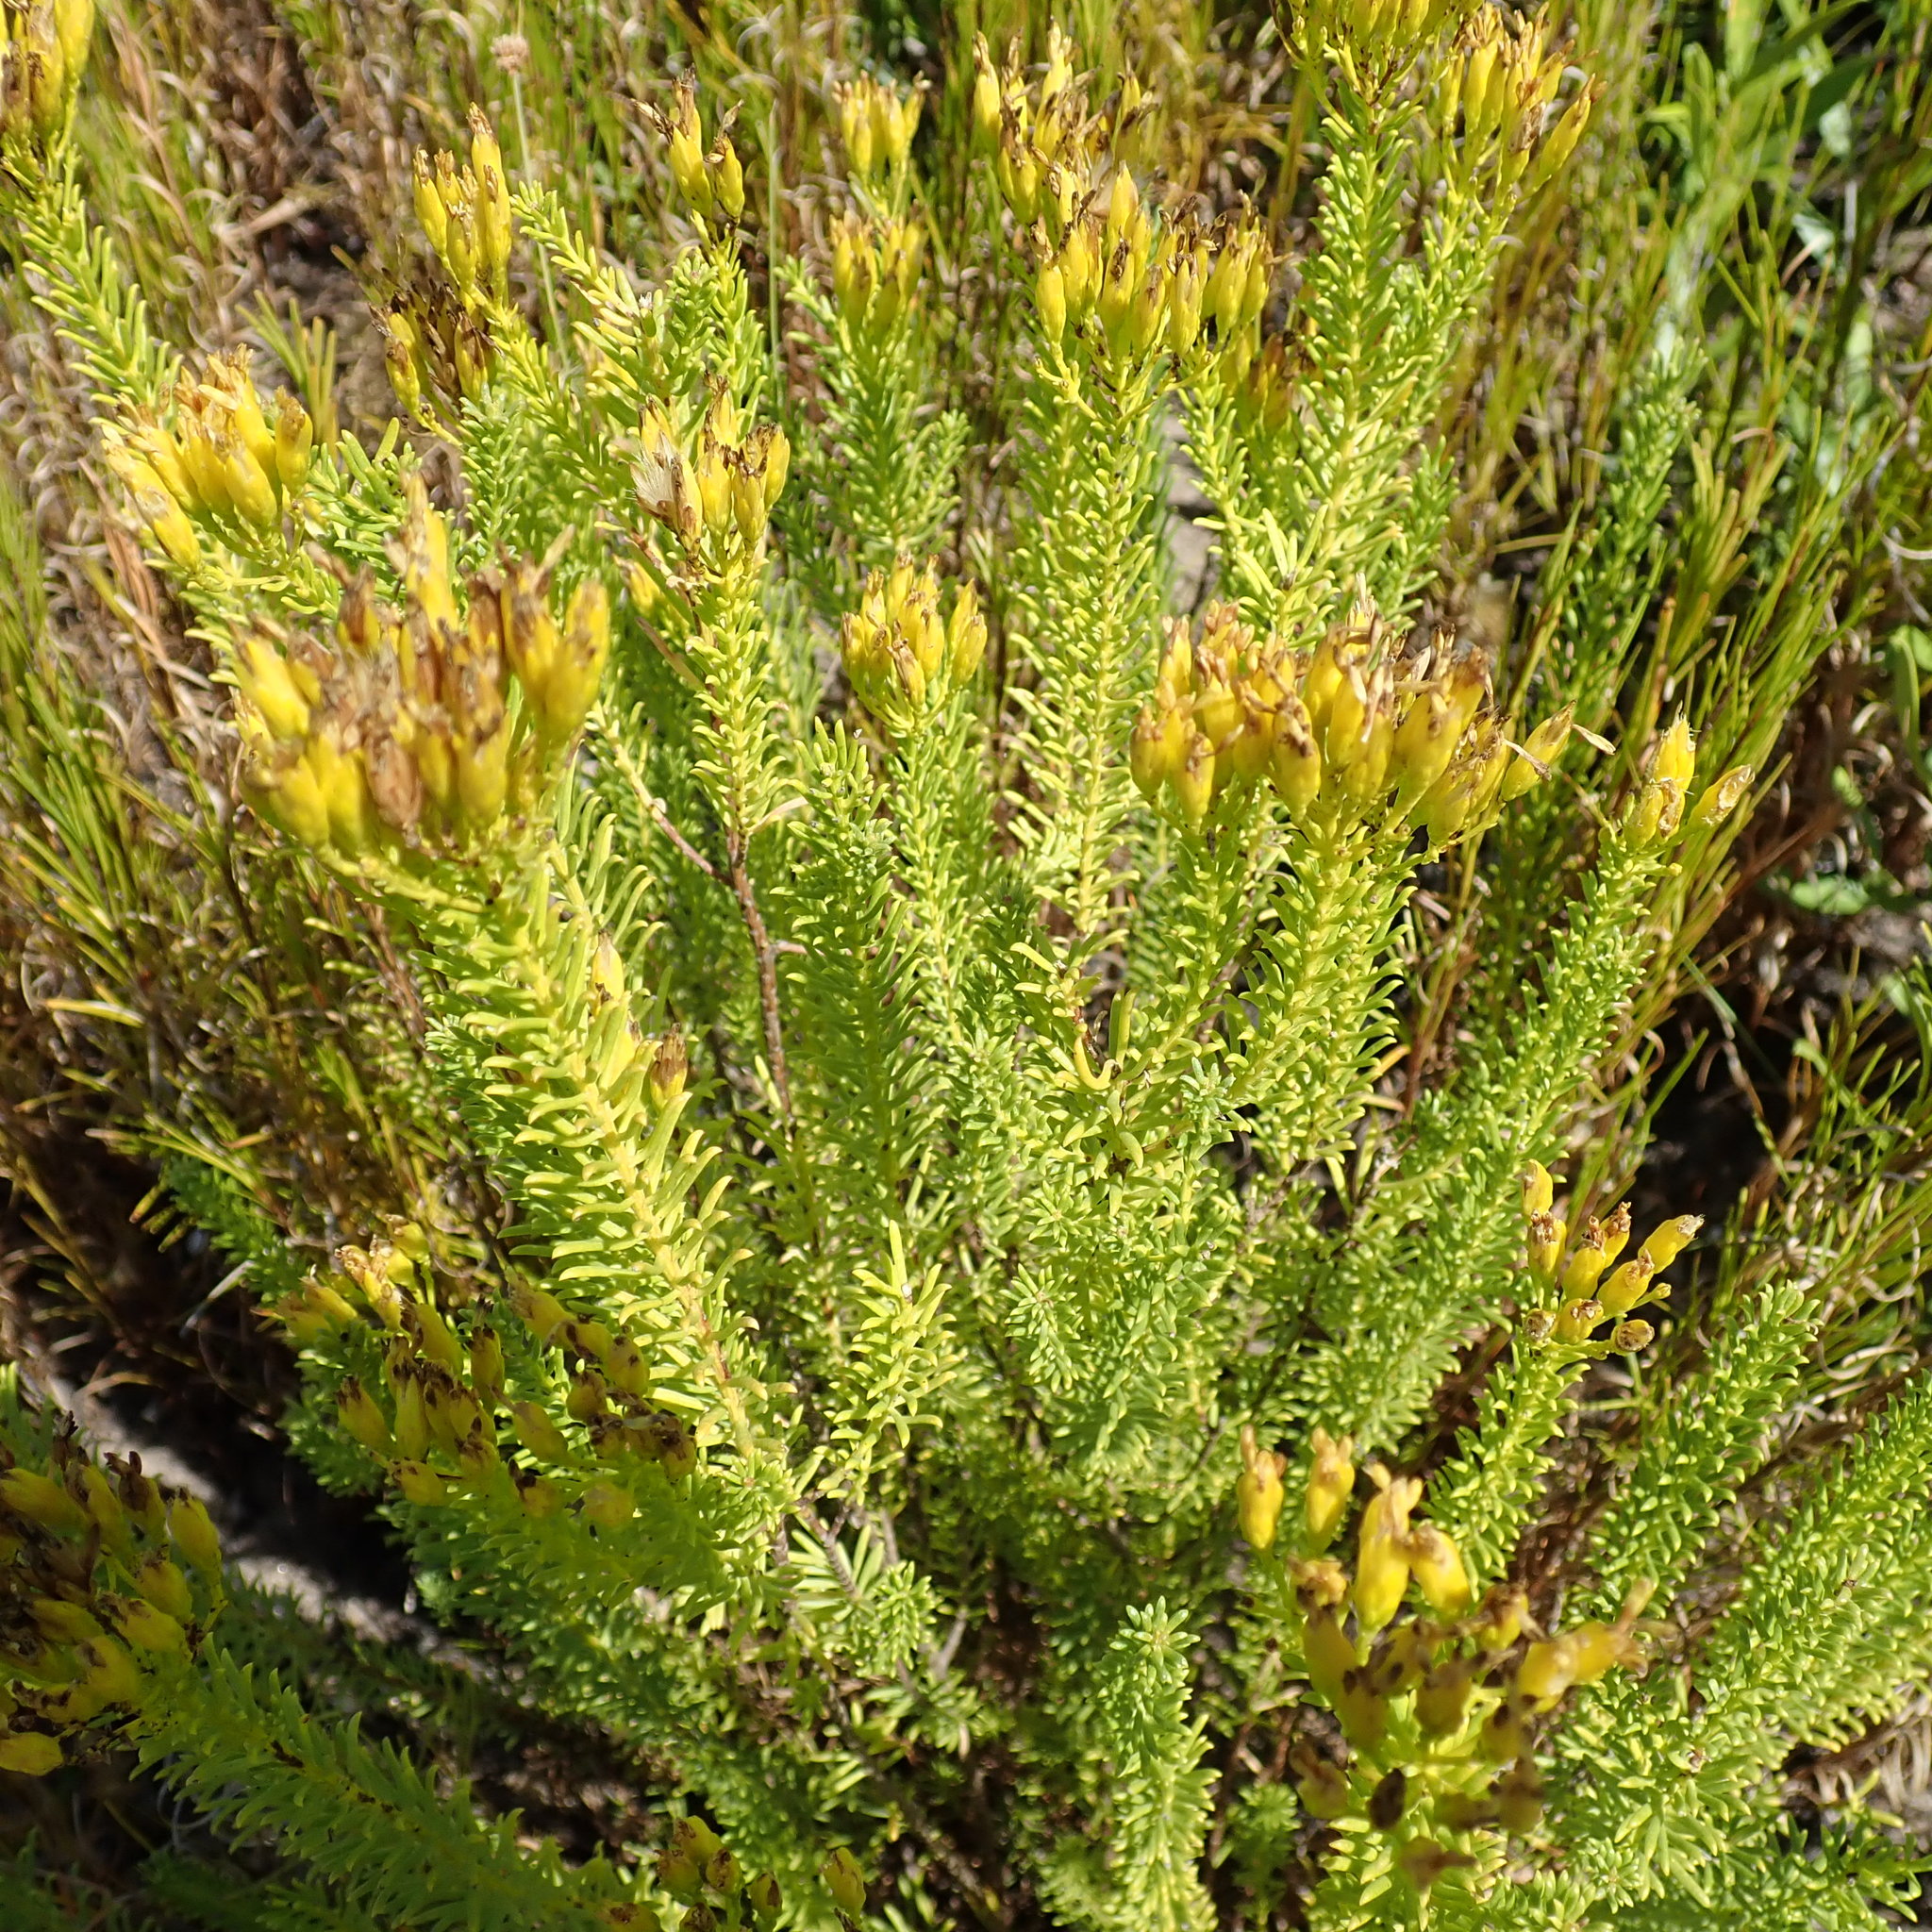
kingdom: Plantae
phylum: Tracheophyta
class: Magnoliopsida
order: Asterales
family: Asteraceae
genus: Pteronia
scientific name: Pteronia uncinata
